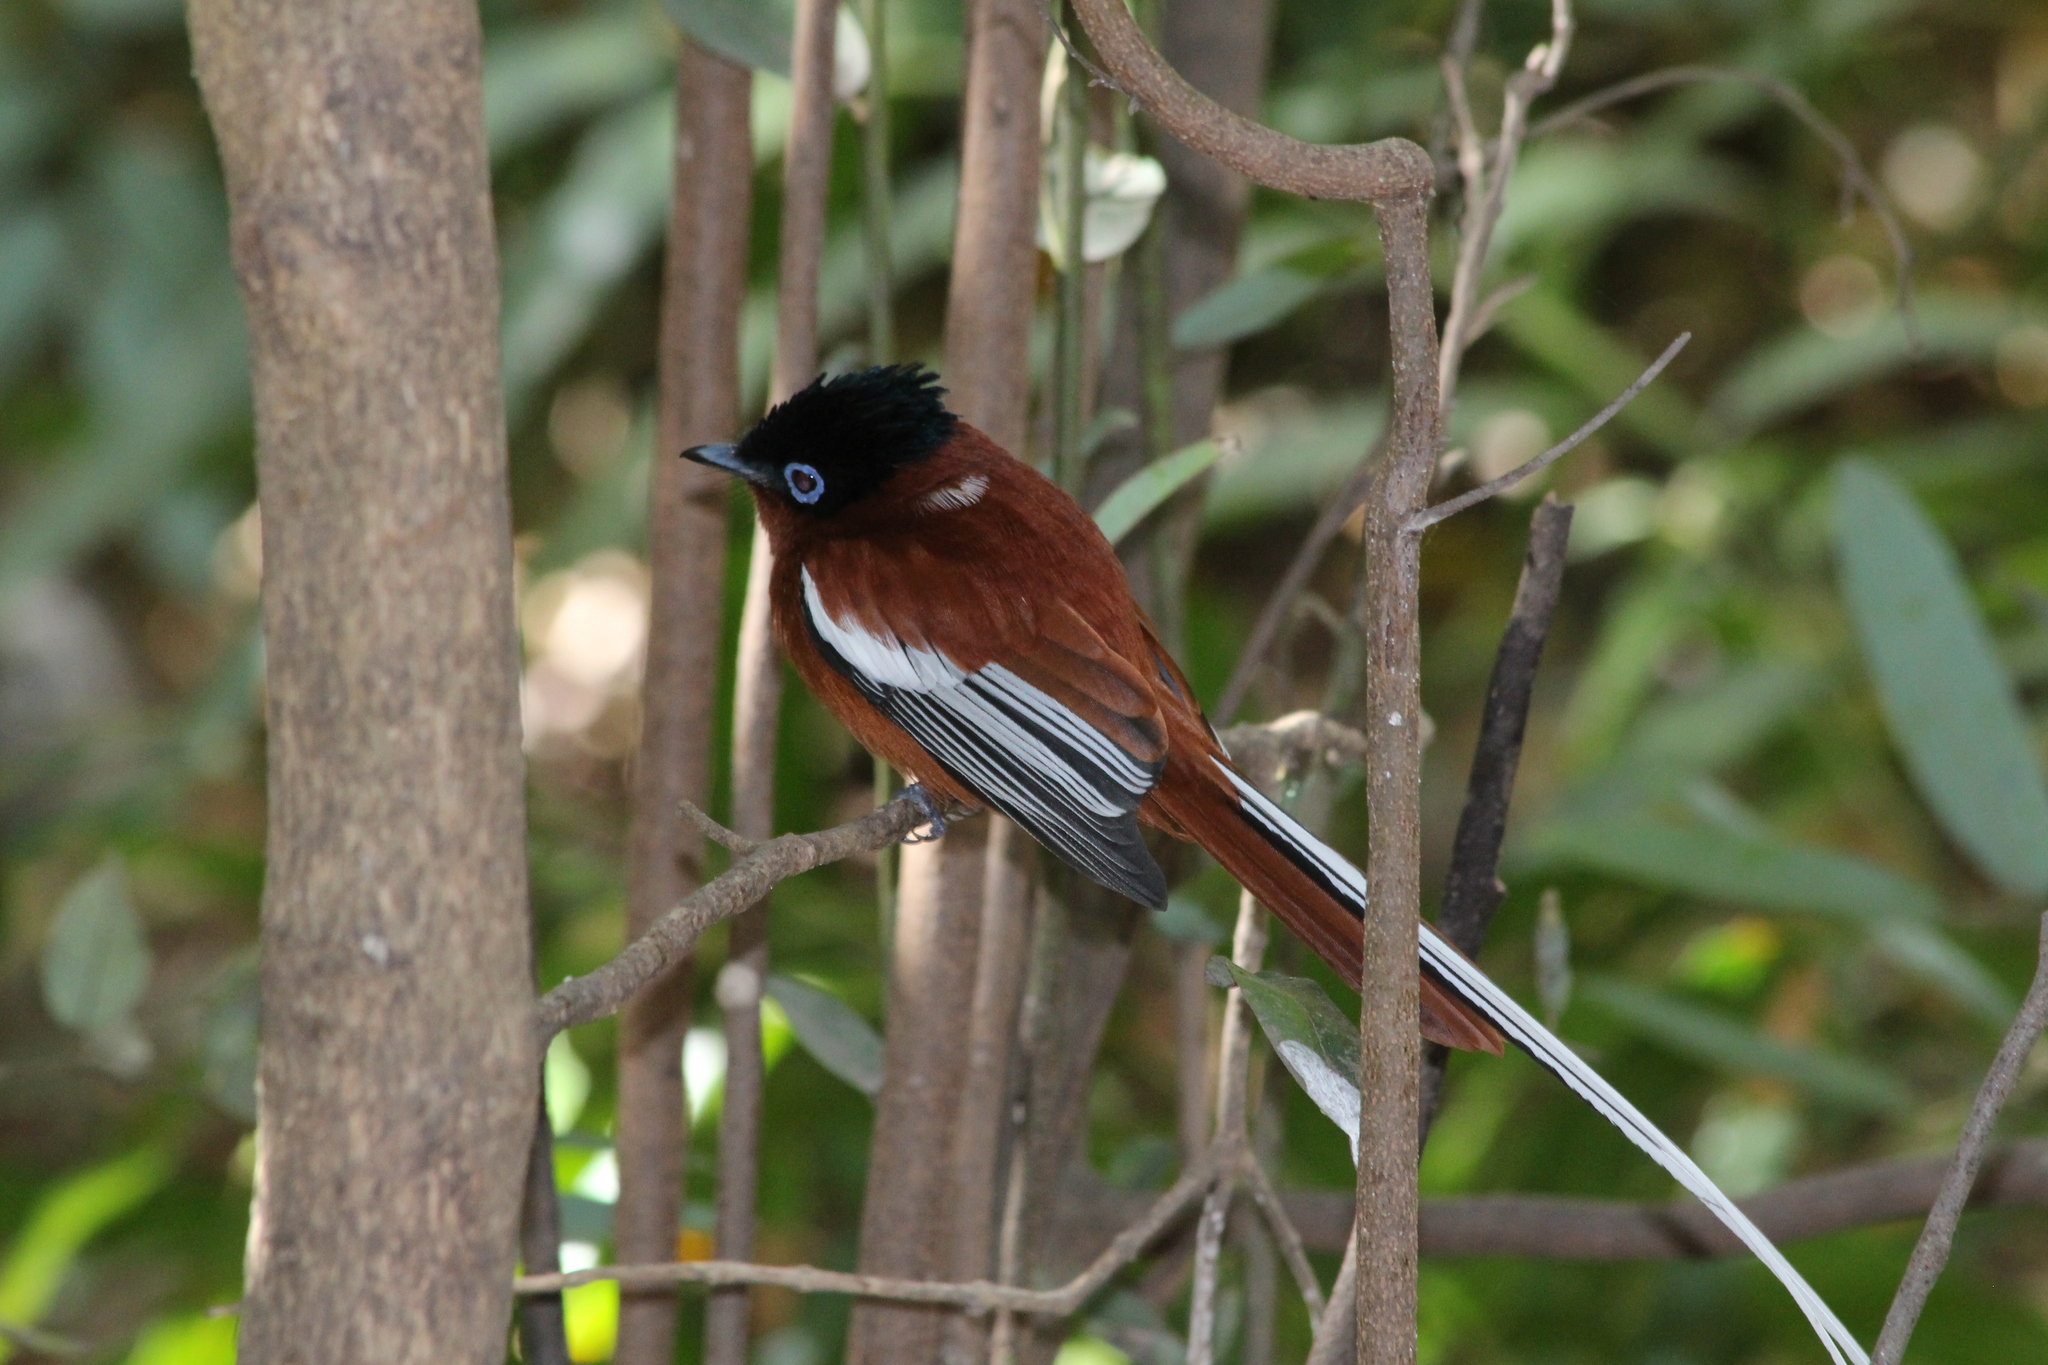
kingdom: Animalia
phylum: Chordata
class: Aves
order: Passeriformes
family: Monarchidae
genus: Terpsiphone
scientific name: Terpsiphone mutata
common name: Malagasy paradise flycatcher
